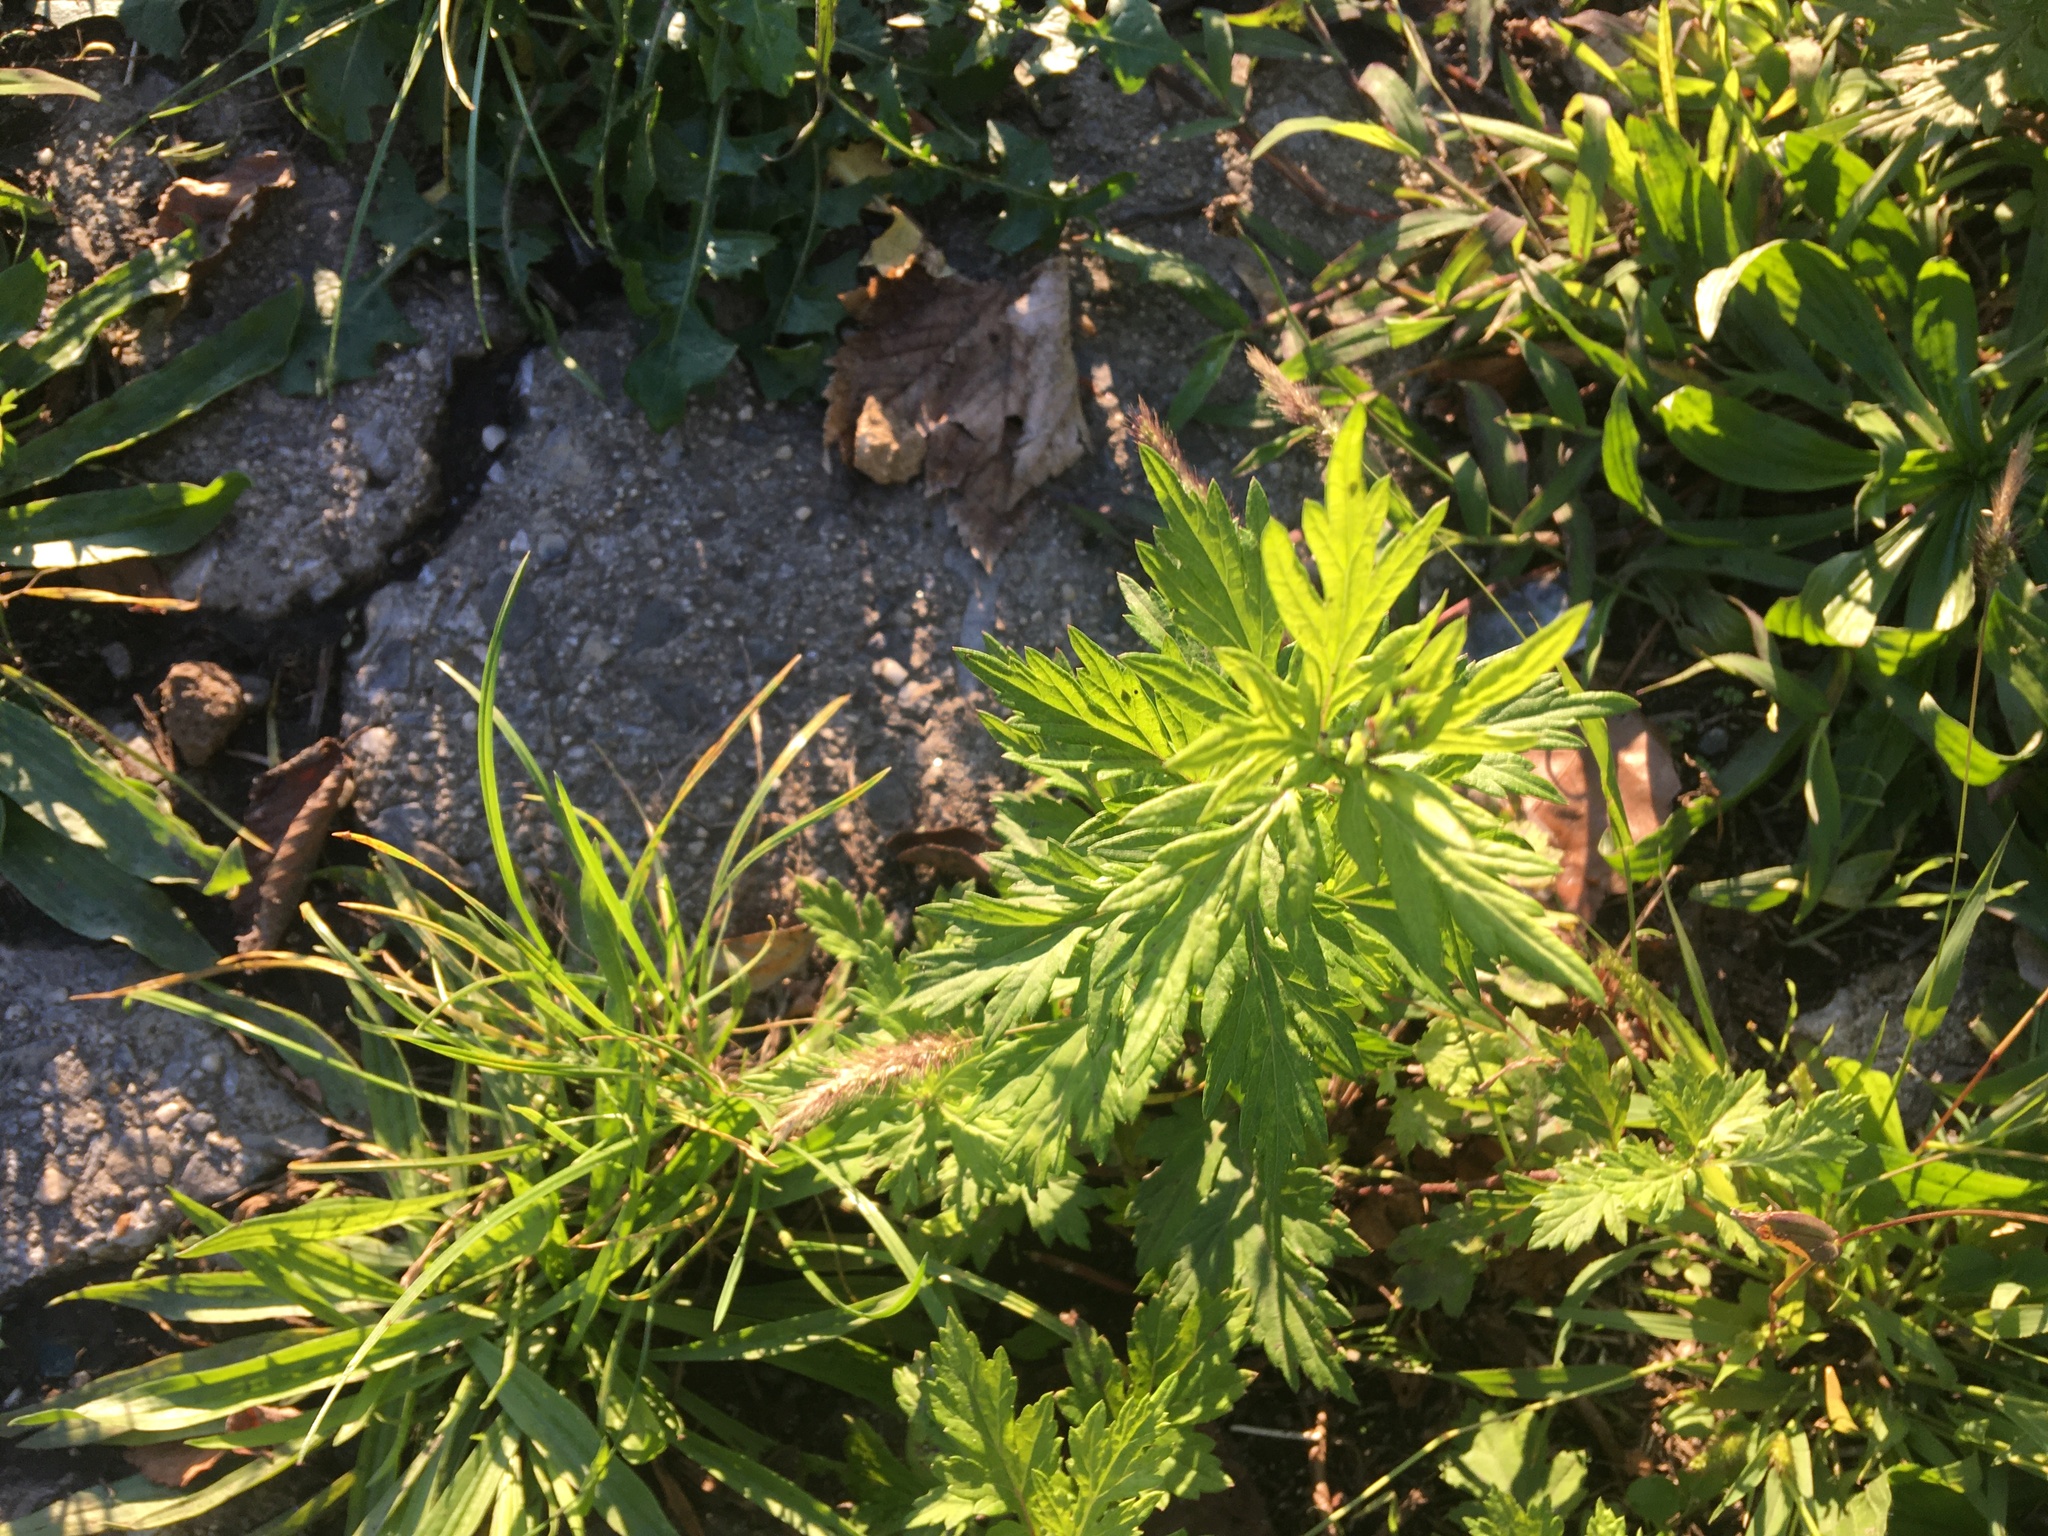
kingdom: Plantae
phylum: Tracheophyta
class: Magnoliopsida
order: Asterales
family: Asteraceae
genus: Artemisia
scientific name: Artemisia vulgaris
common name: Mugwort
